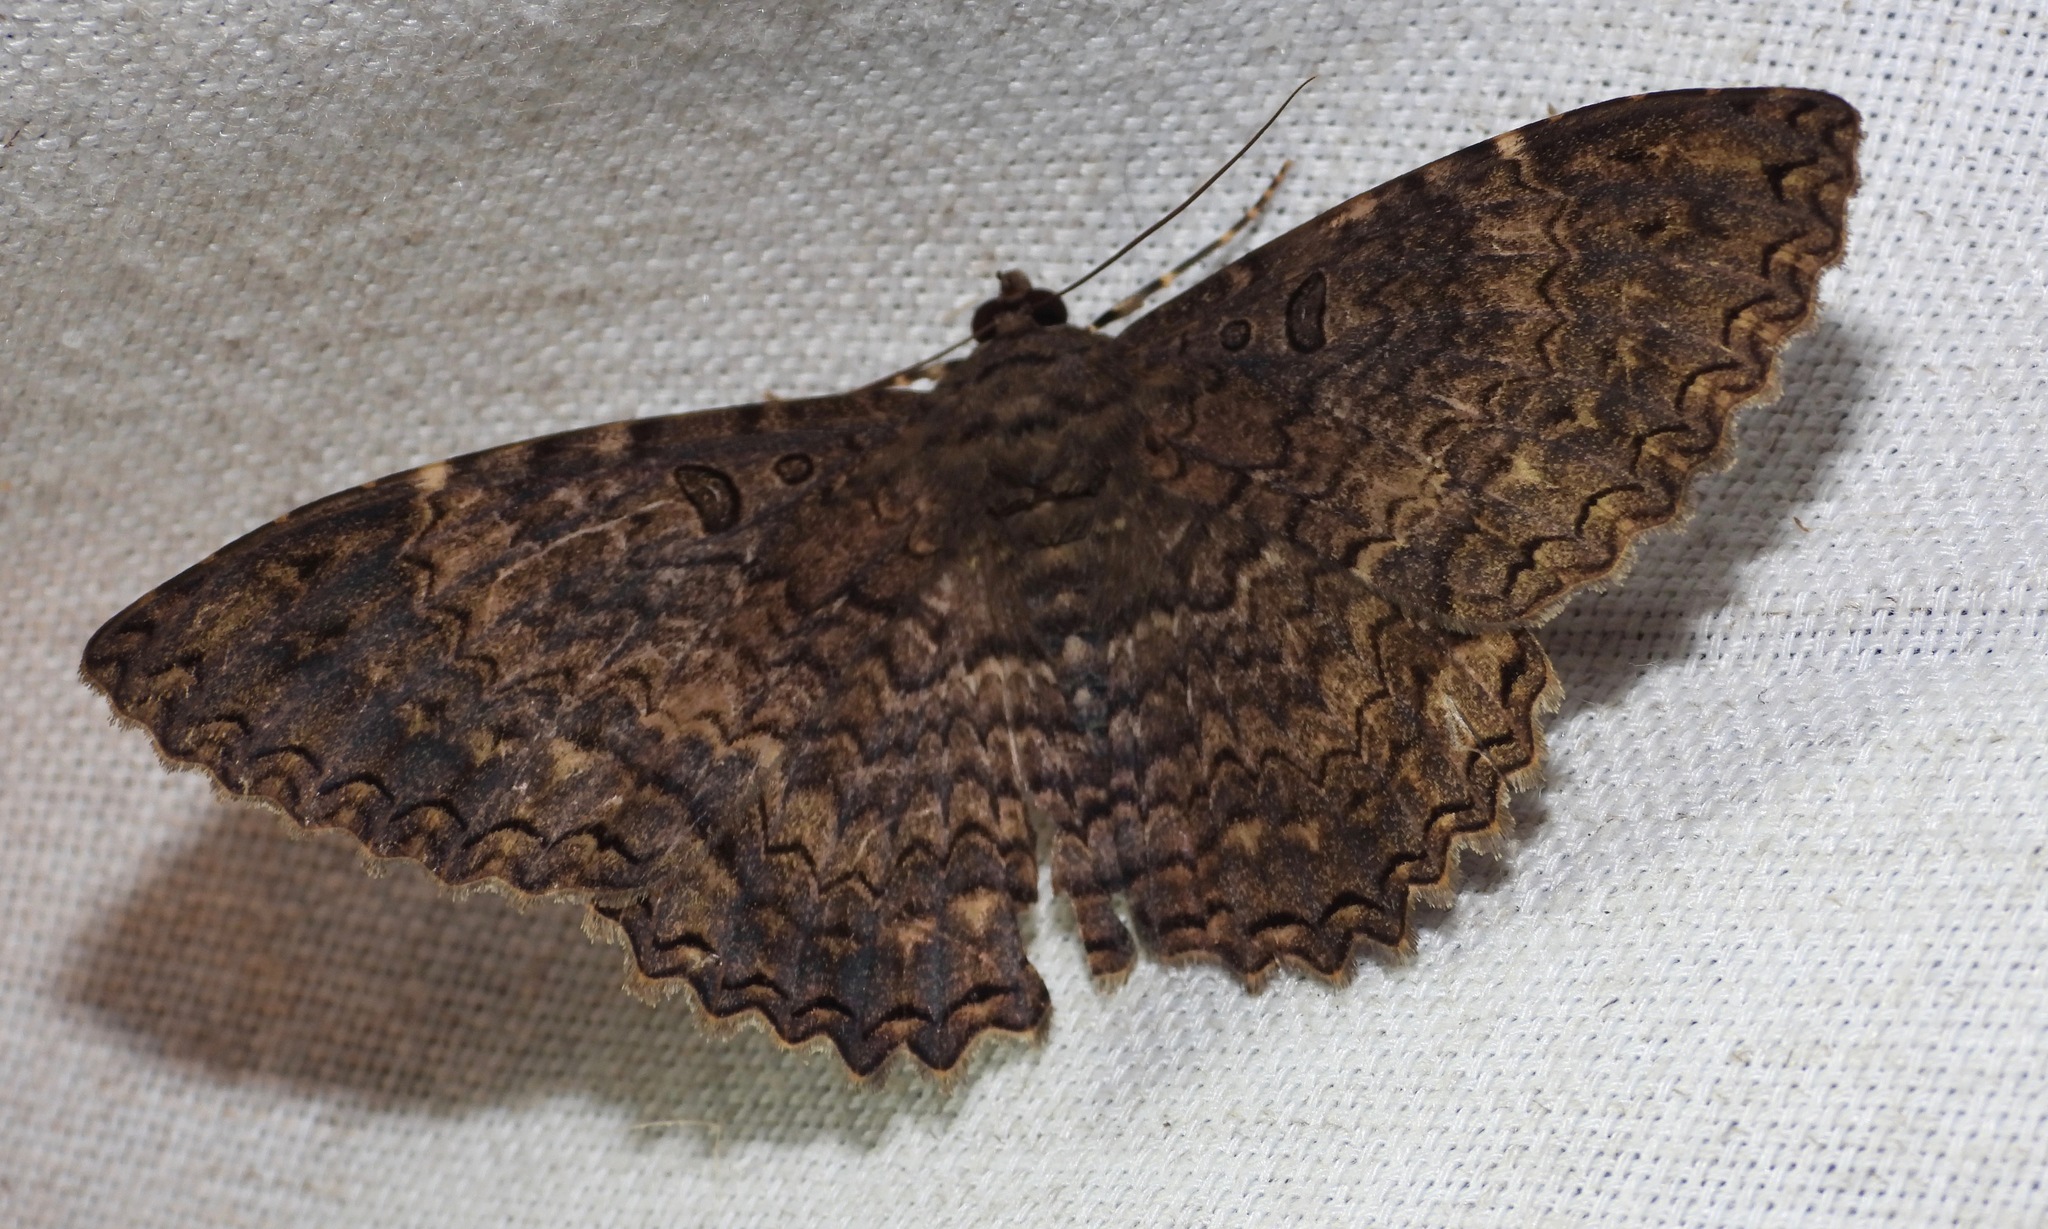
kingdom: Animalia
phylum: Arthropoda
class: Insecta
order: Lepidoptera
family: Erebidae
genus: Feigeria
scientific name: Feigeria
